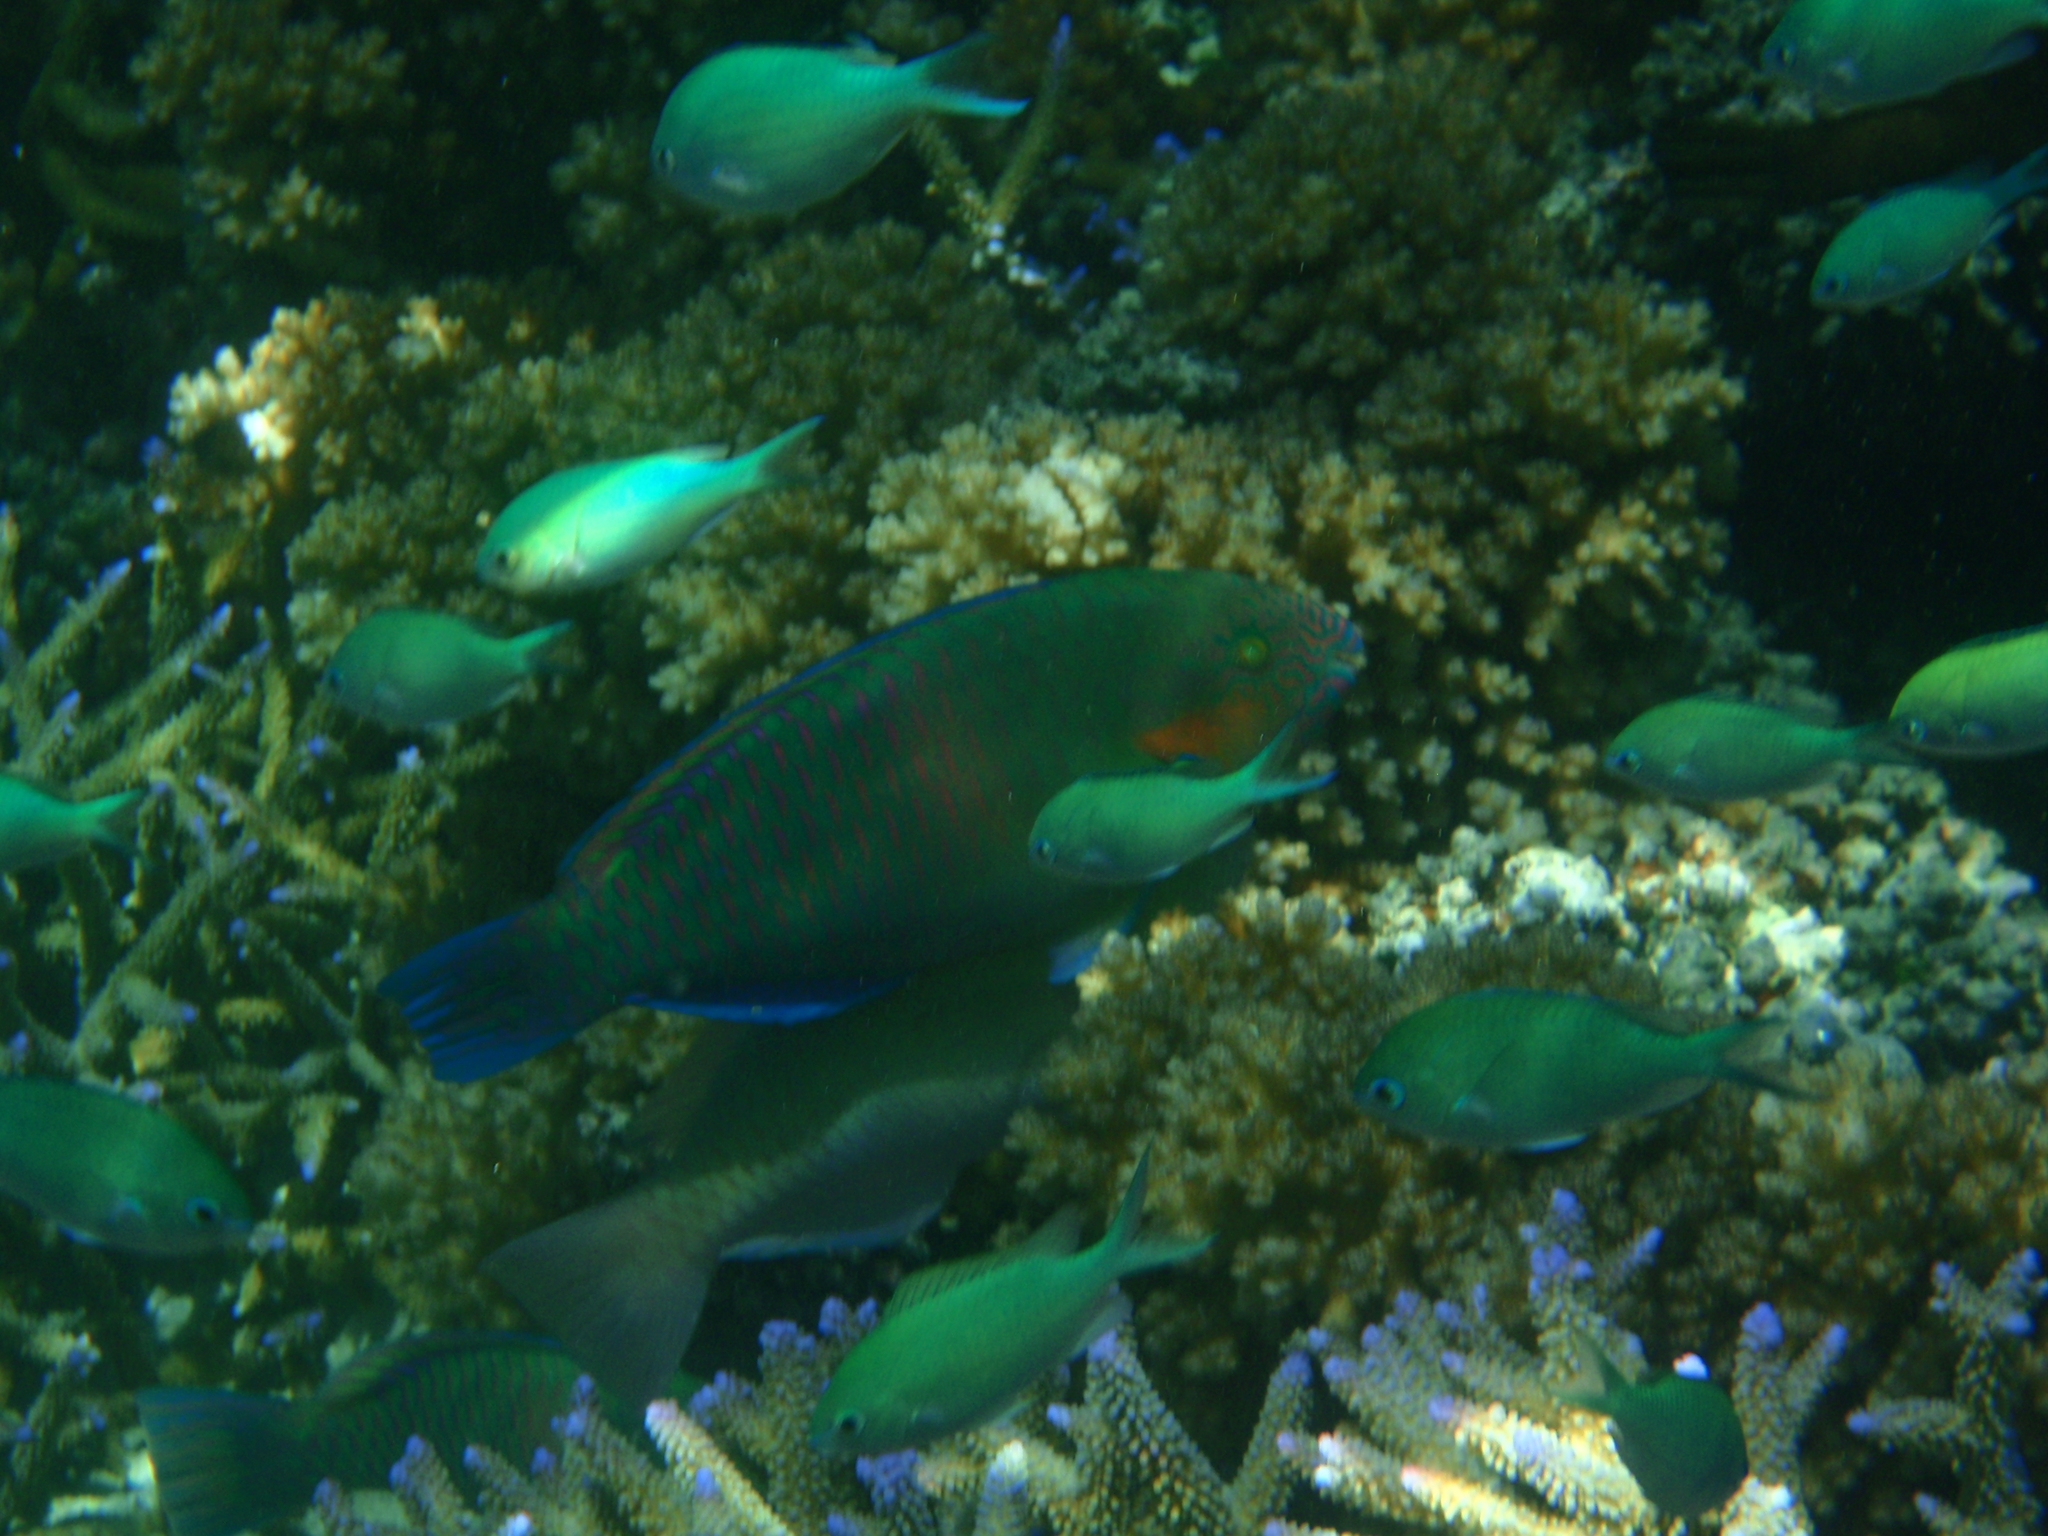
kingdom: Animalia
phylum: Chordata
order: Perciformes
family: Scaridae
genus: Scarus
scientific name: Scarus rivulatus
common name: Surf parrotfish
